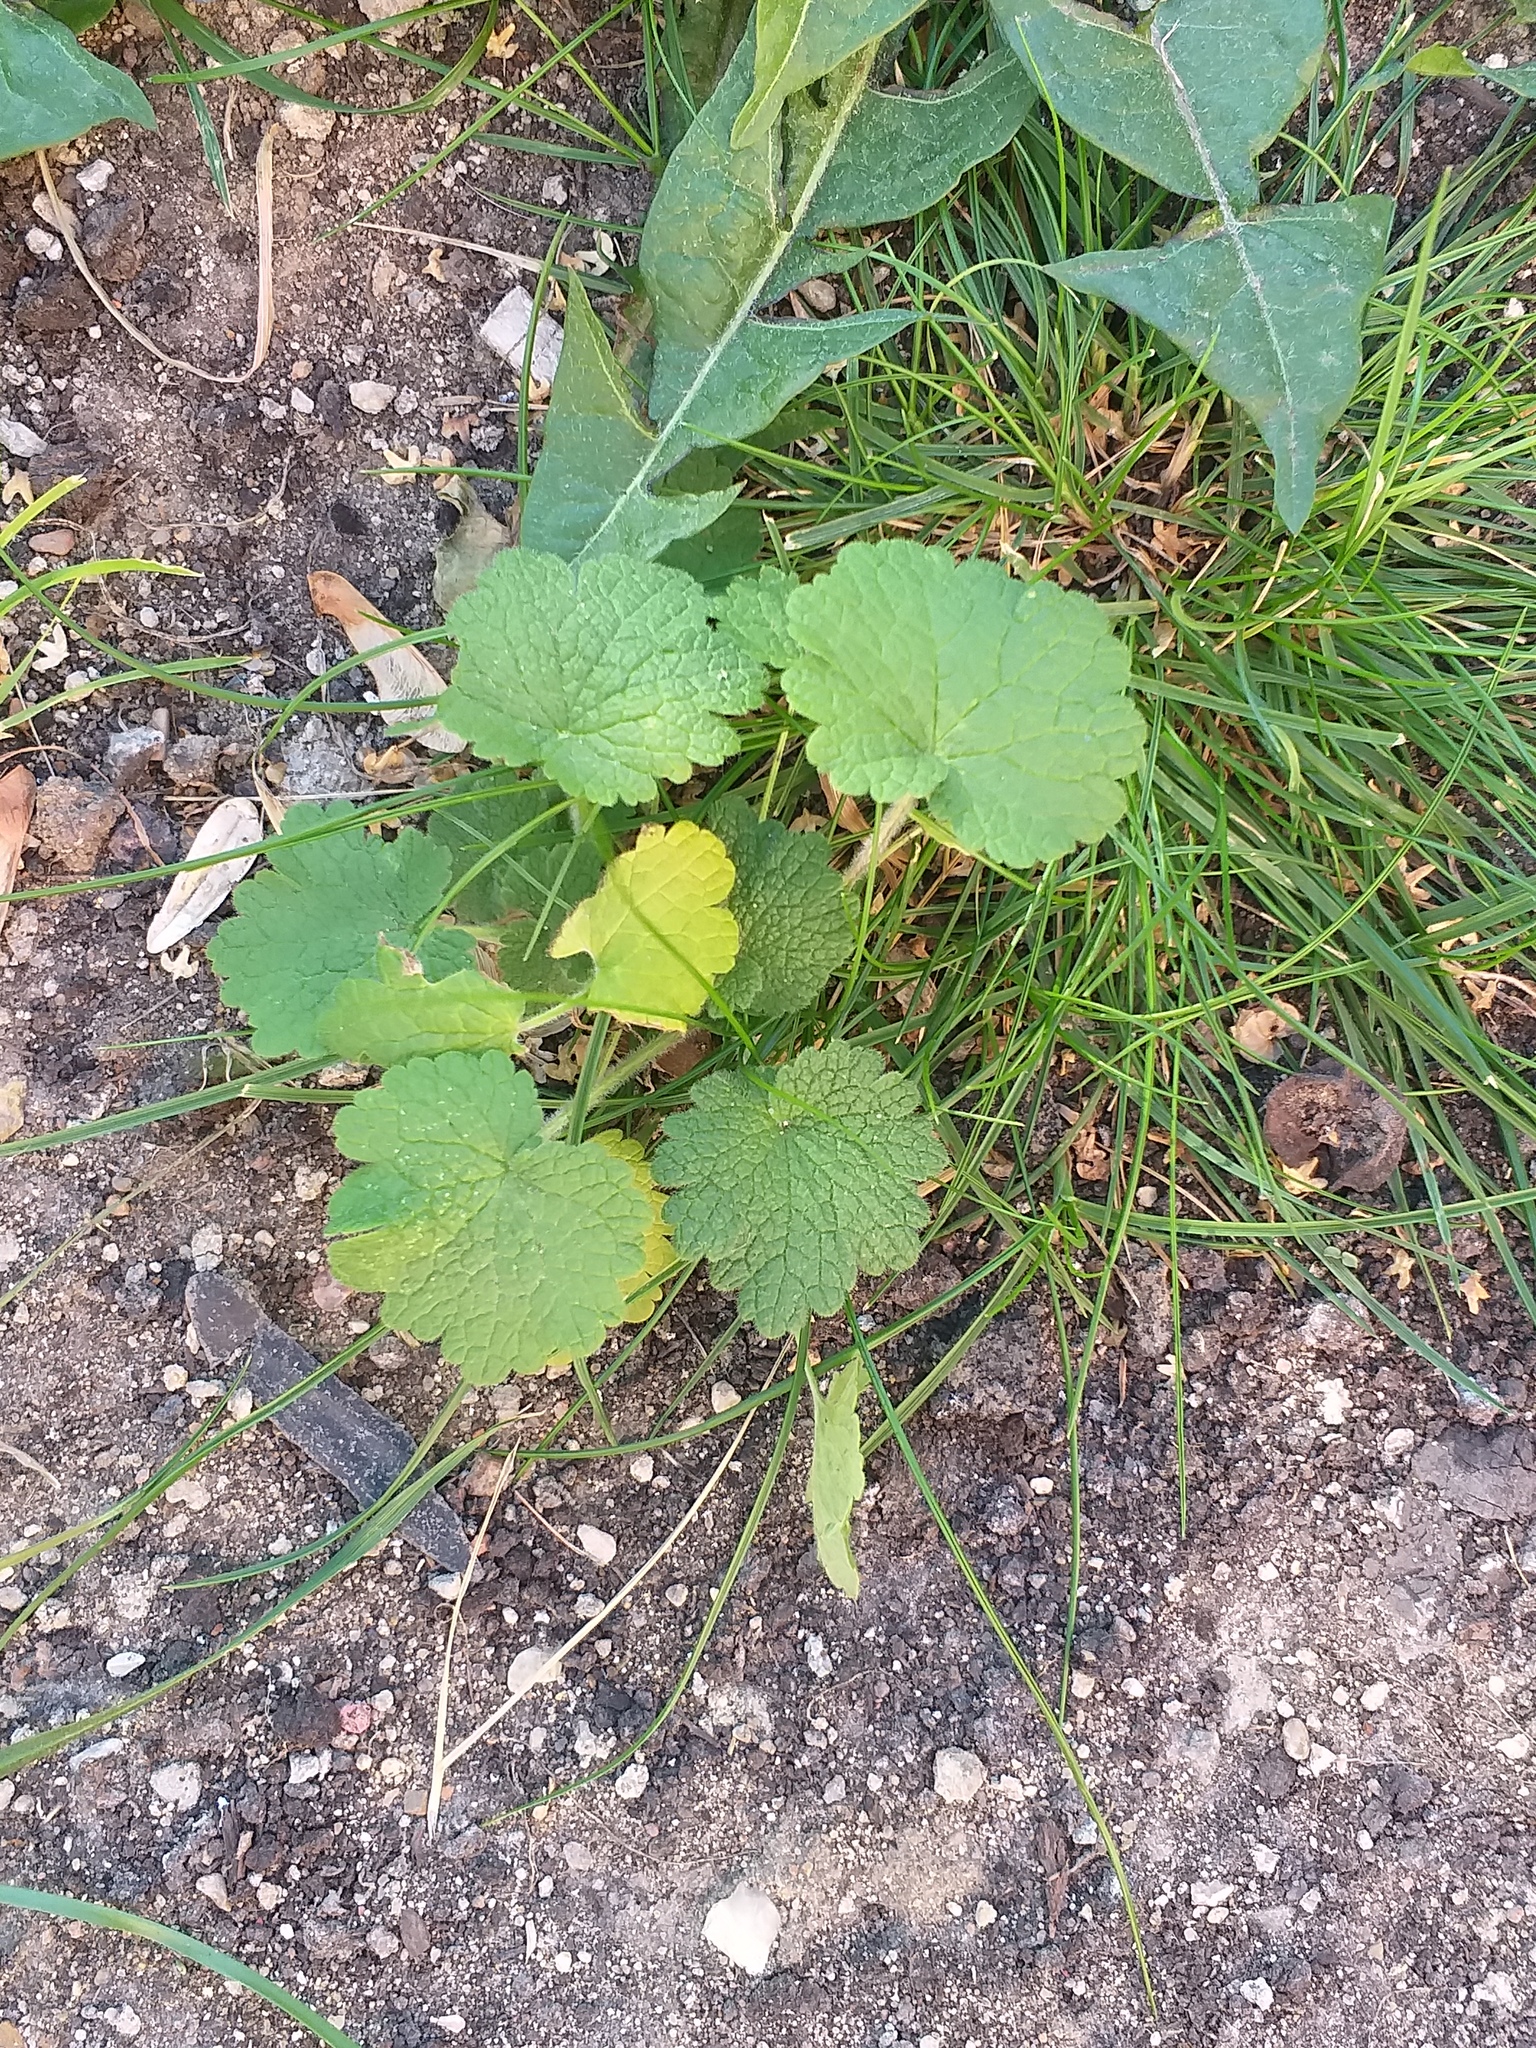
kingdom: Plantae
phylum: Tracheophyta
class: Magnoliopsida
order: Lamiales
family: Lamiaceae
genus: Leonurus
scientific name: Leonurus quinquelobatus
